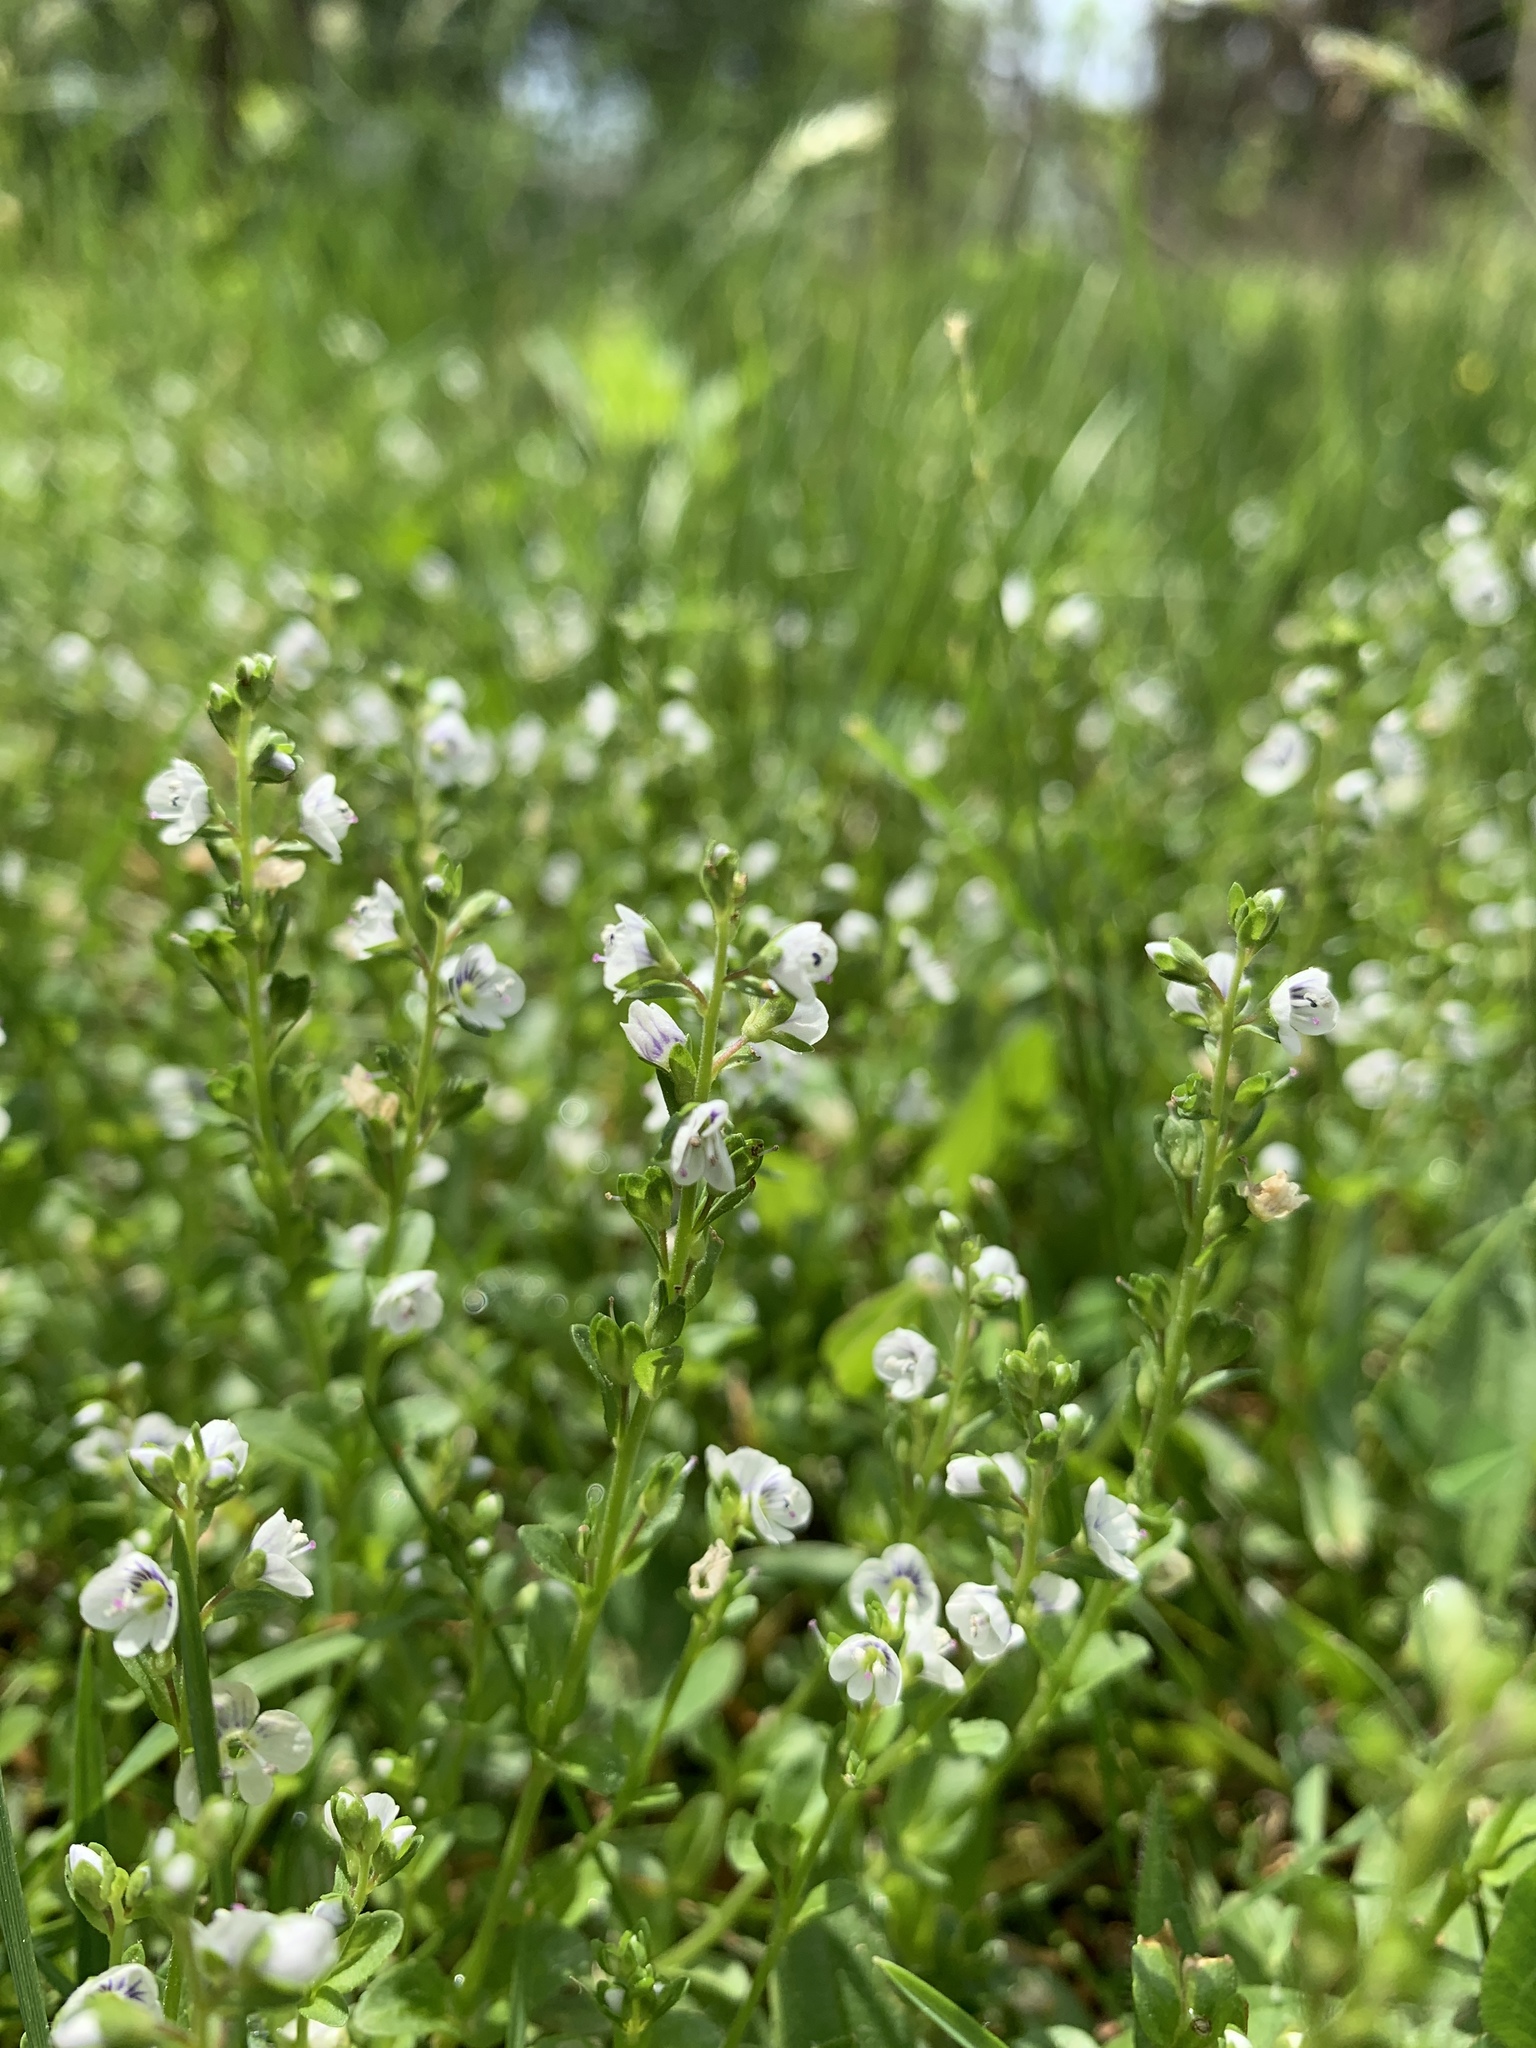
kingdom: Plantae
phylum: Tracheophyta
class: Magnoliopsida
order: Lamiales
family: Plantaginaceae
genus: Veronica
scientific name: Veronica serpyllifolia
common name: Thyme-leaved speedwell
